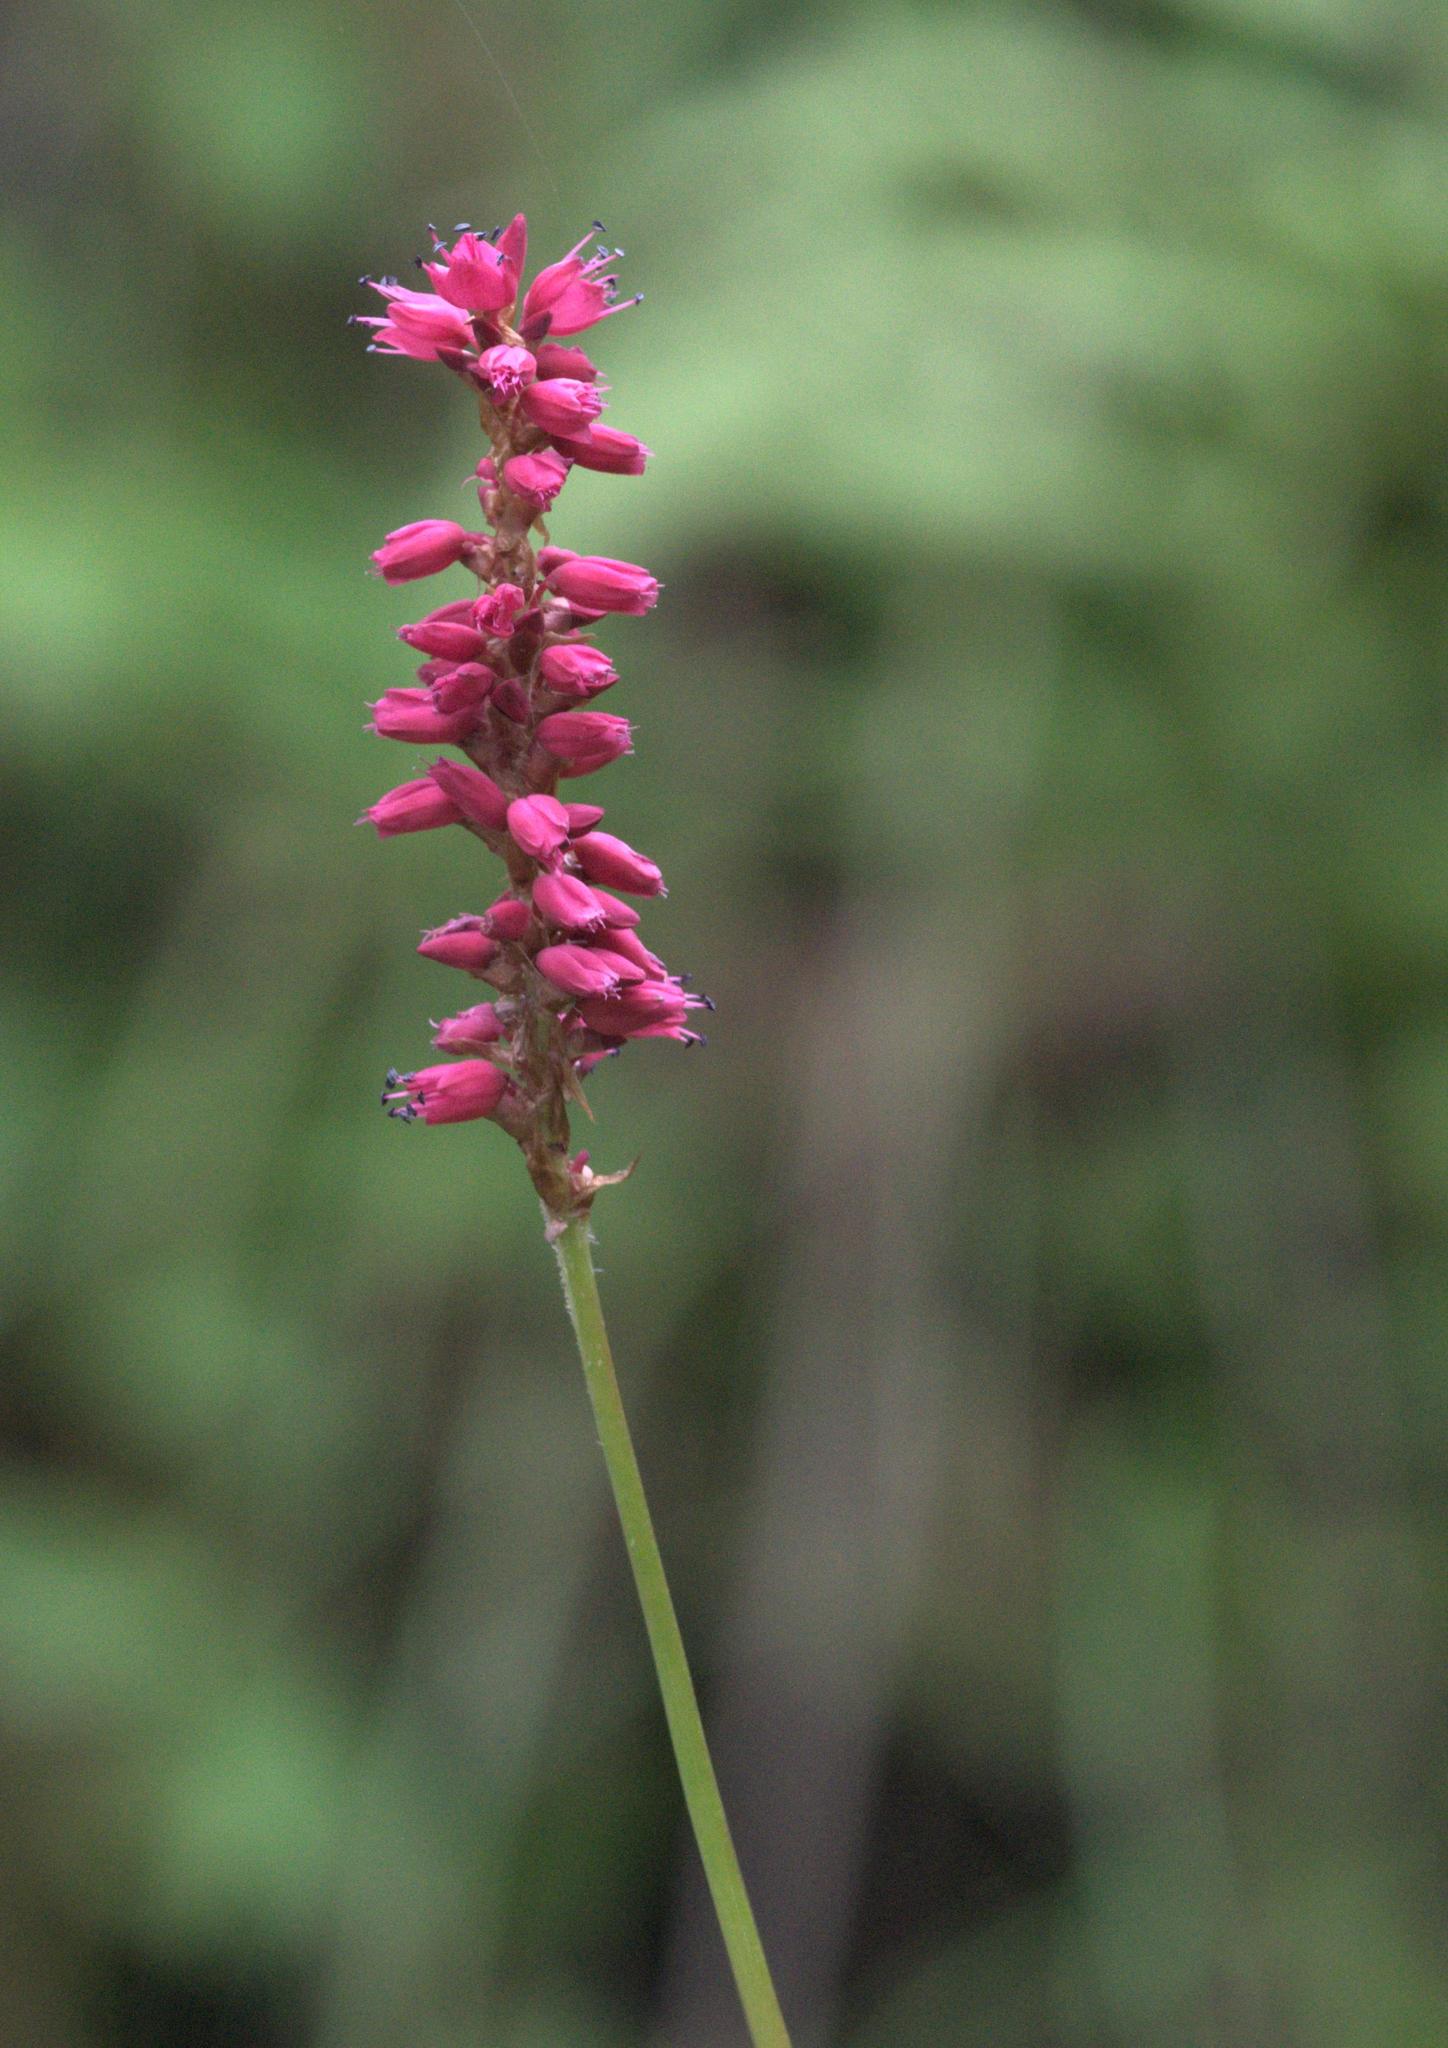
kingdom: Plantae
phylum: Tracheophyta
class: Magnoliopsida
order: Caryophyllales
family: Polygonaceae
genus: Bistorta
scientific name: Bistorta amplexicaulis
